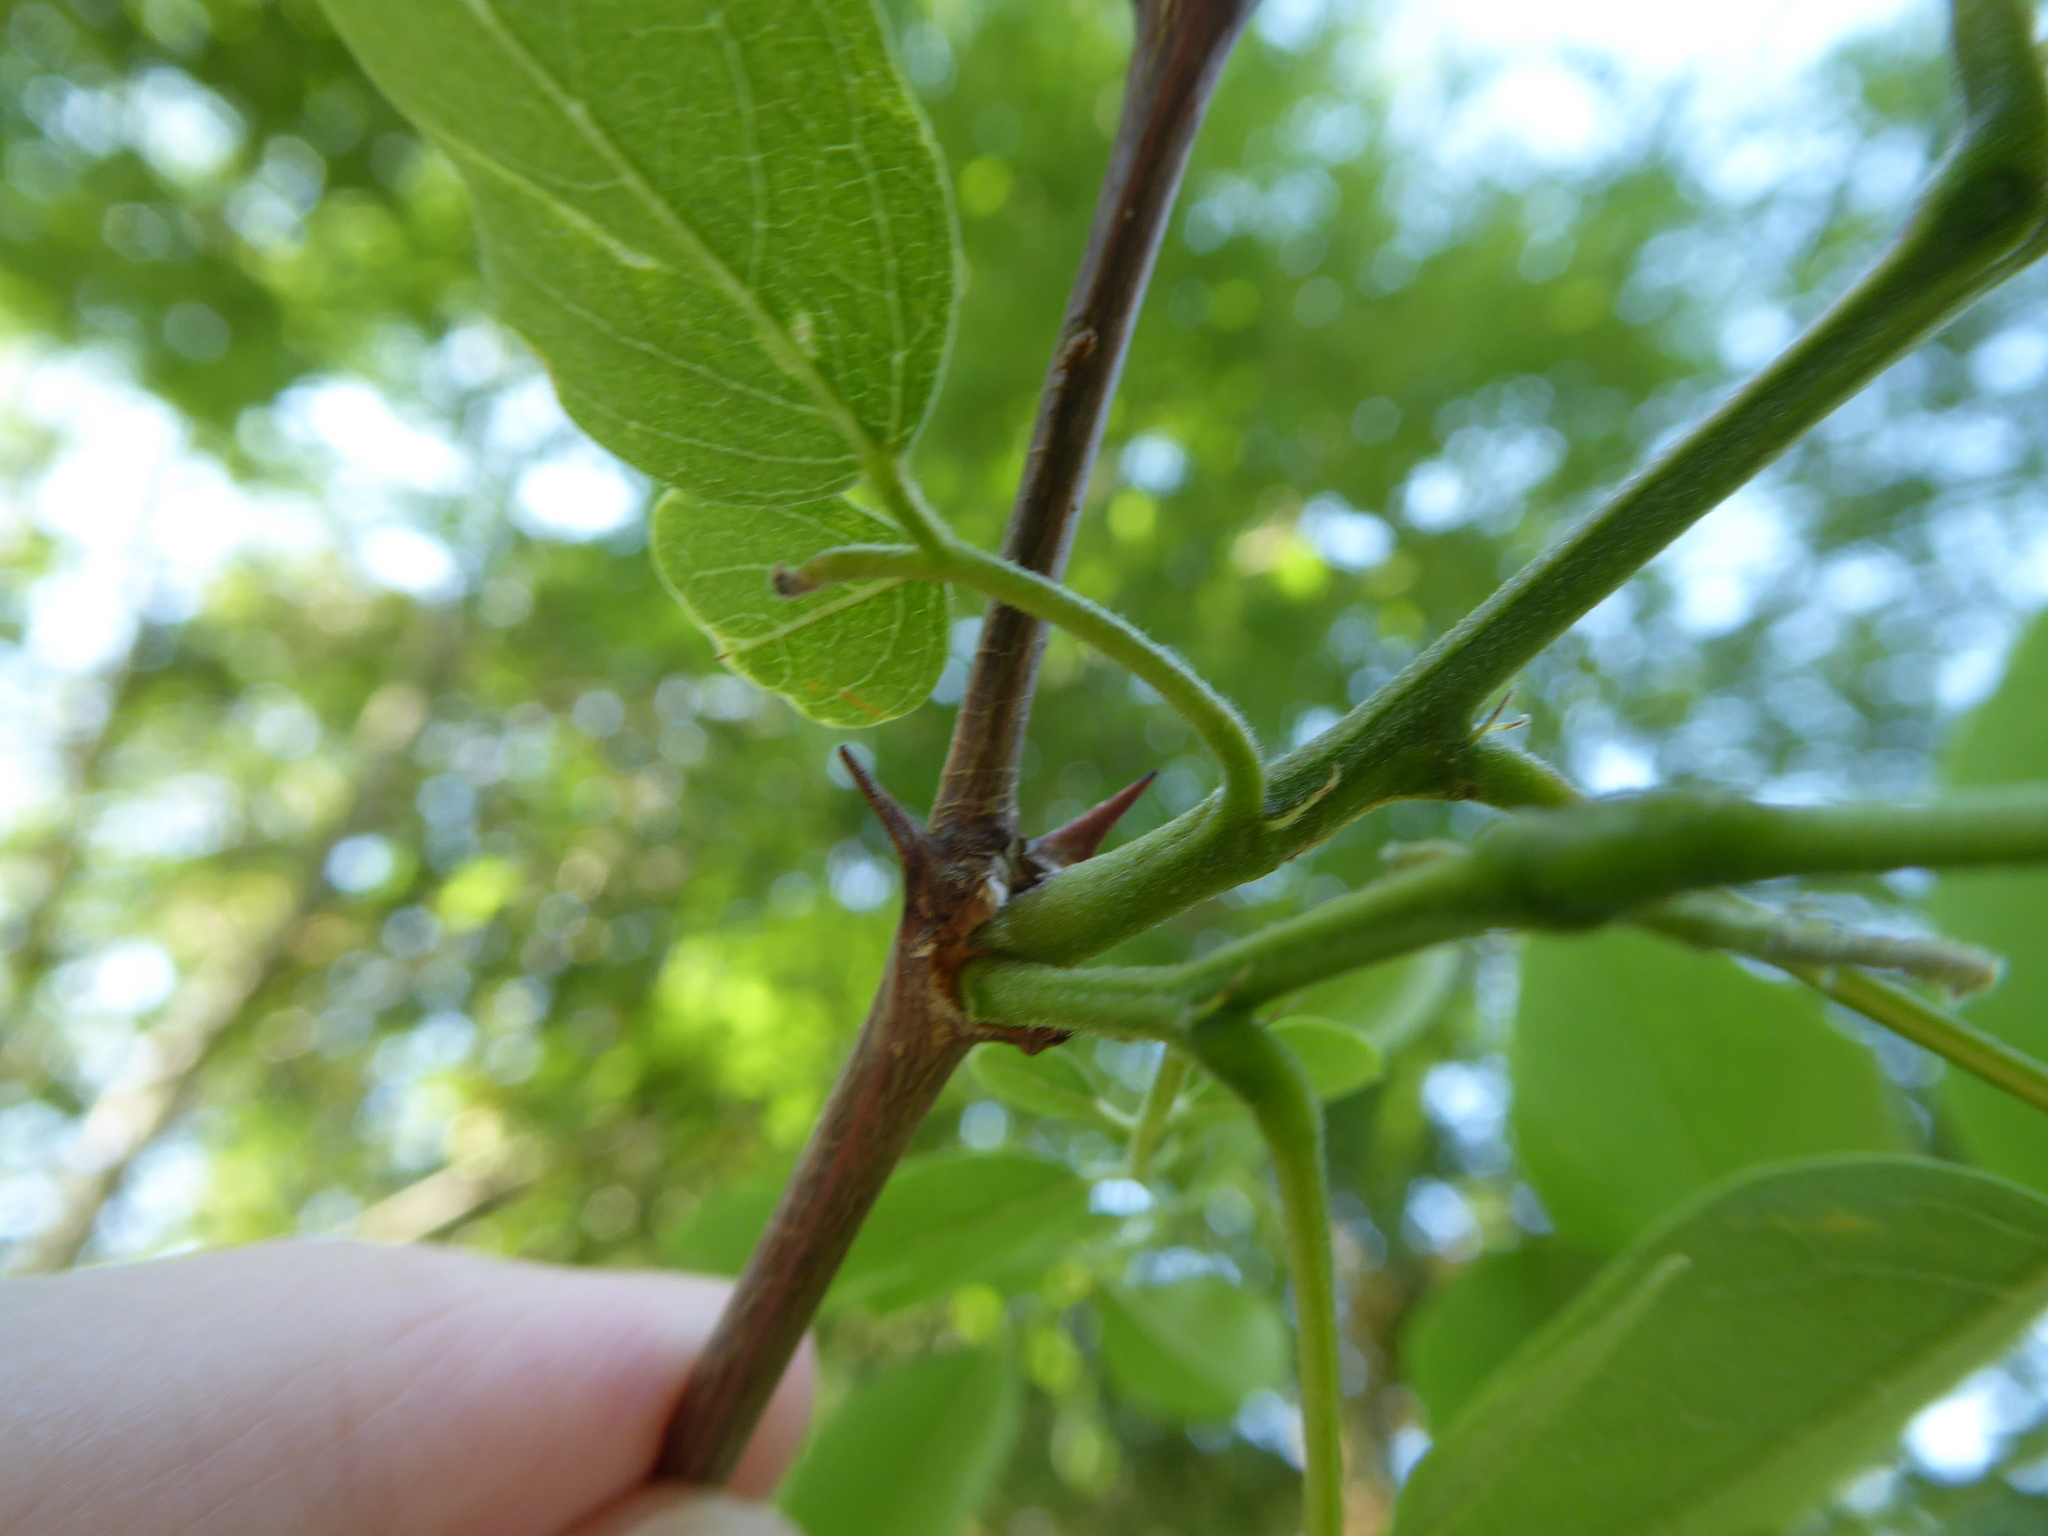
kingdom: Plantae
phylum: Tracheophyta
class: Magnoliopsida
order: Fabales
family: Fabaceae
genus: Robinia
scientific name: Robinia pseudoacacia
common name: Black locust
